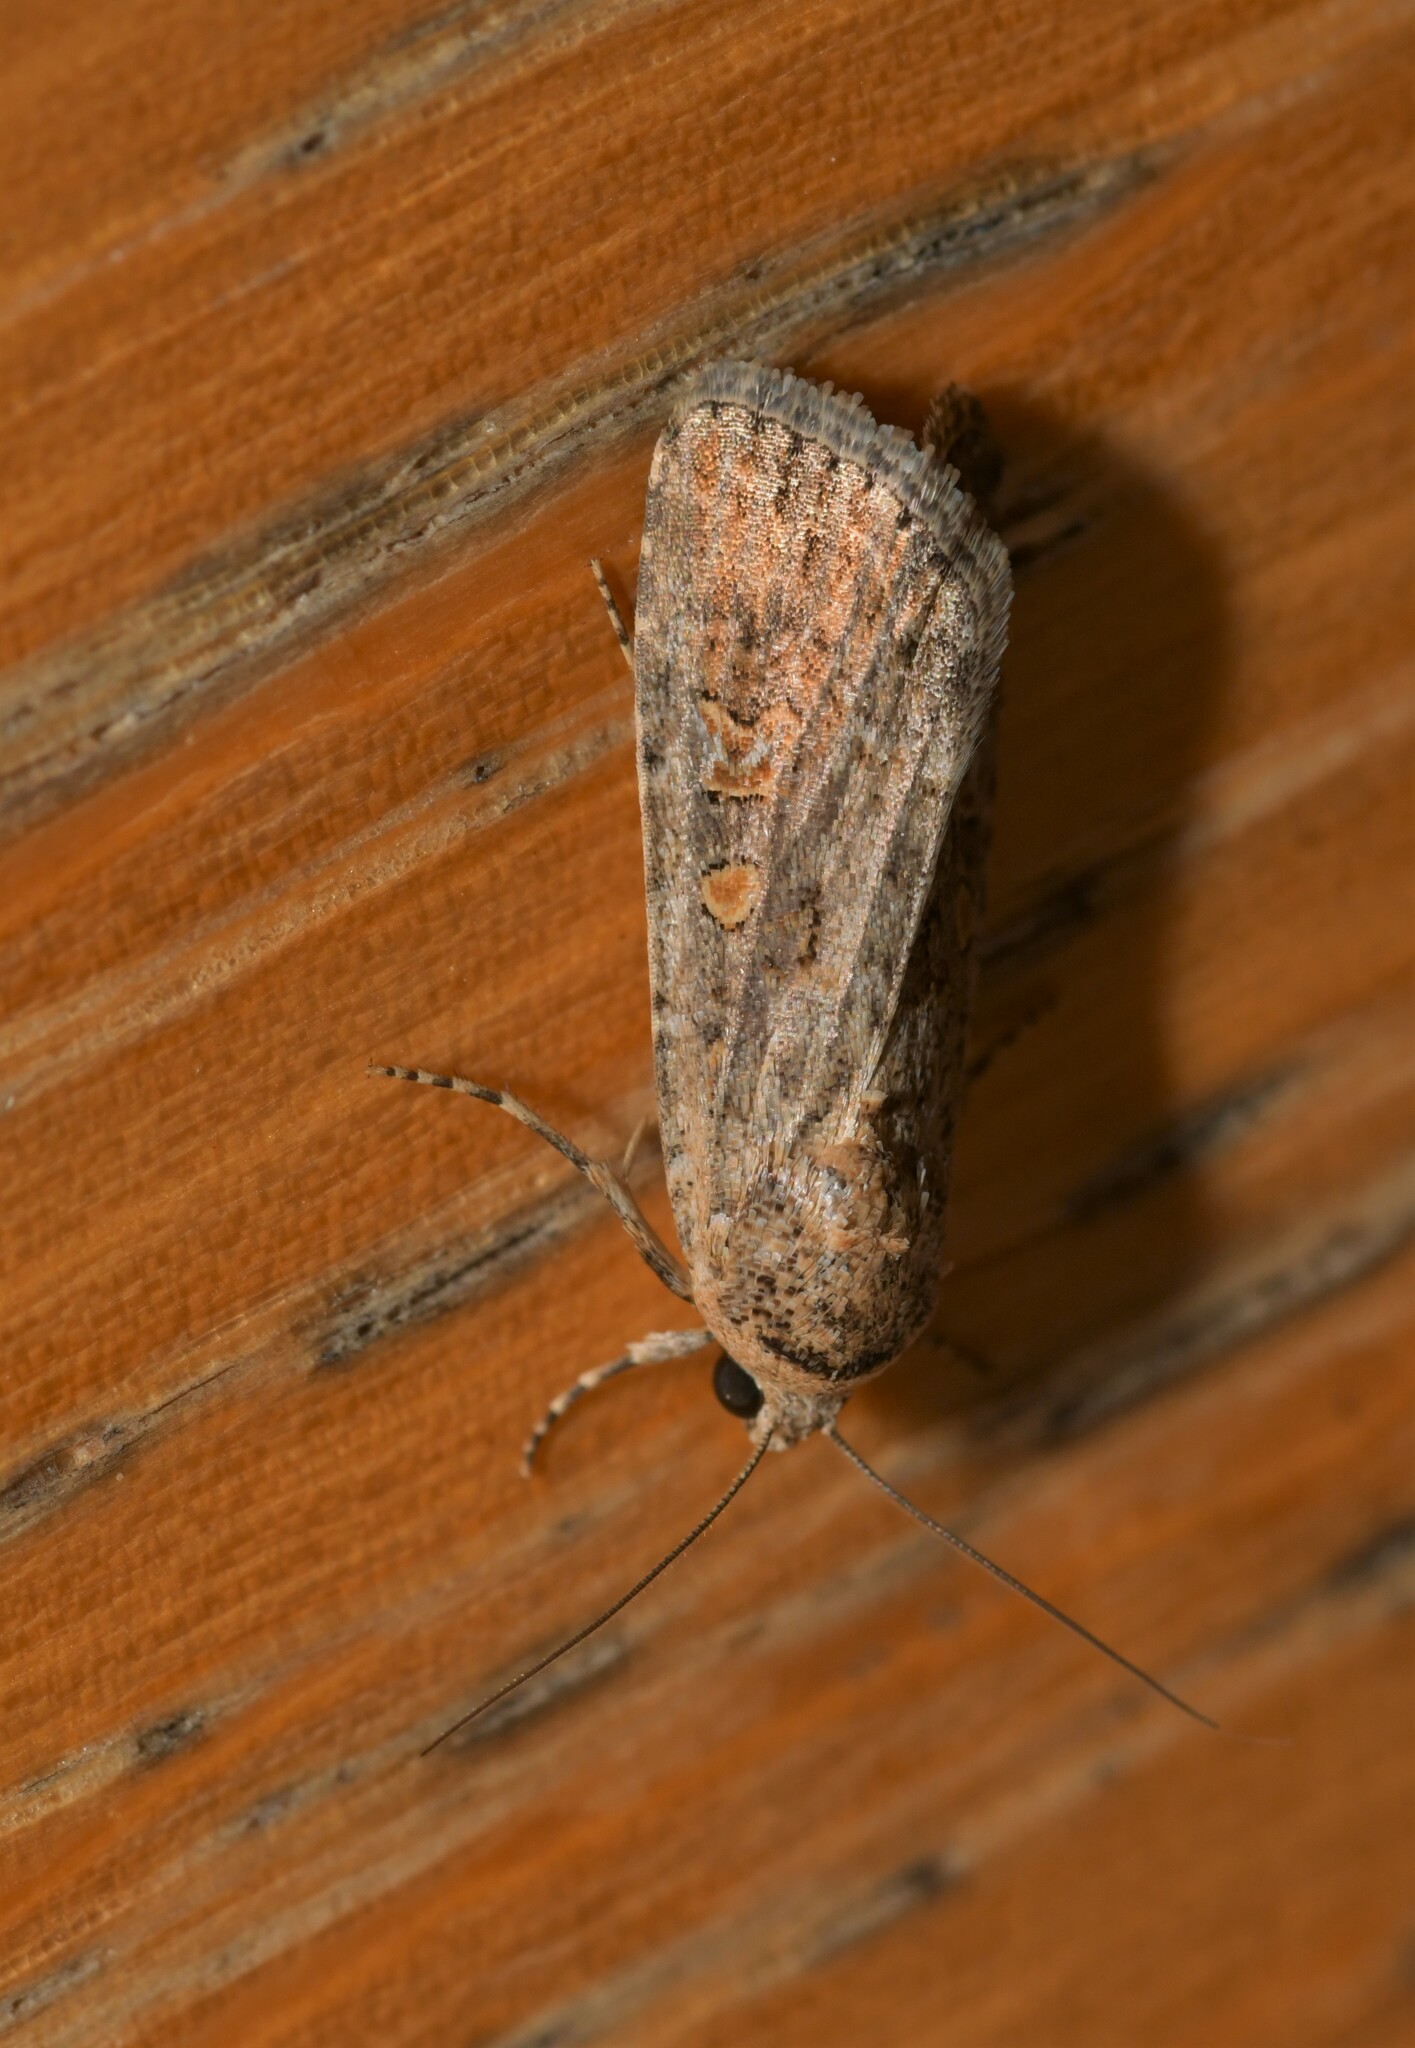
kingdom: Animalia
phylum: Arthropoda
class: Insecta
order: Lepidoptera
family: Noctuidae
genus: Spodoptera
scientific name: Spodoptera exigua
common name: Beet armyworm
